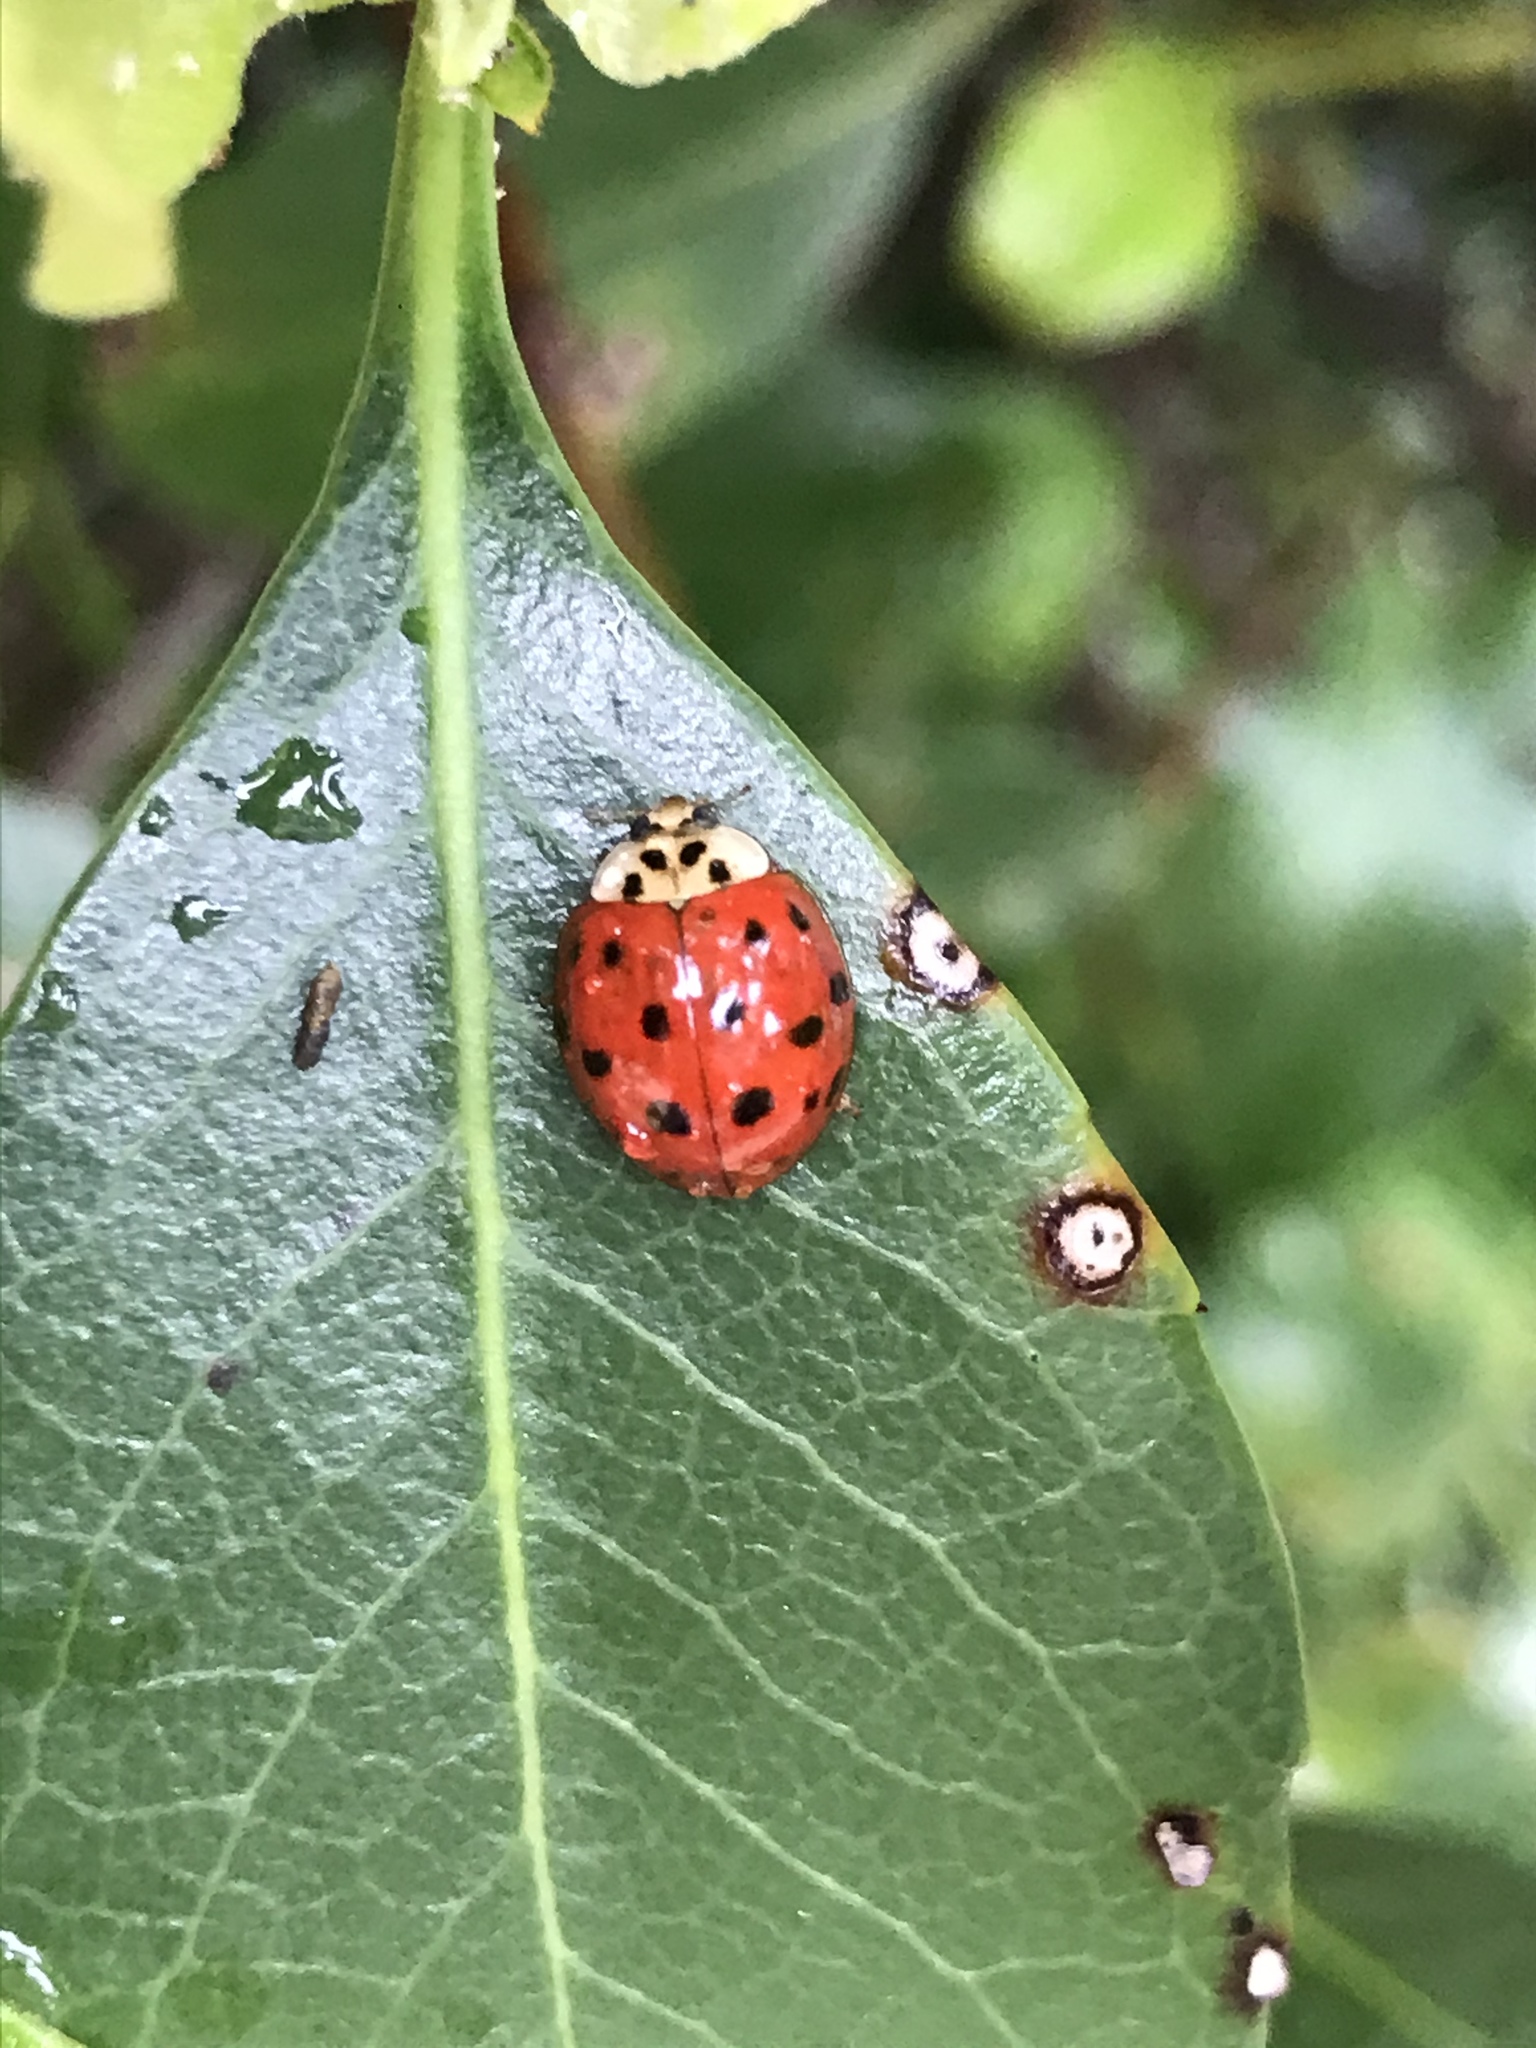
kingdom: Animalia
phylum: Arthropoda
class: Insecta
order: Coleoptera
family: Coccinellidae
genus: Harmonia
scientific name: Harmonia axyridis
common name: Harlequin ladybird
